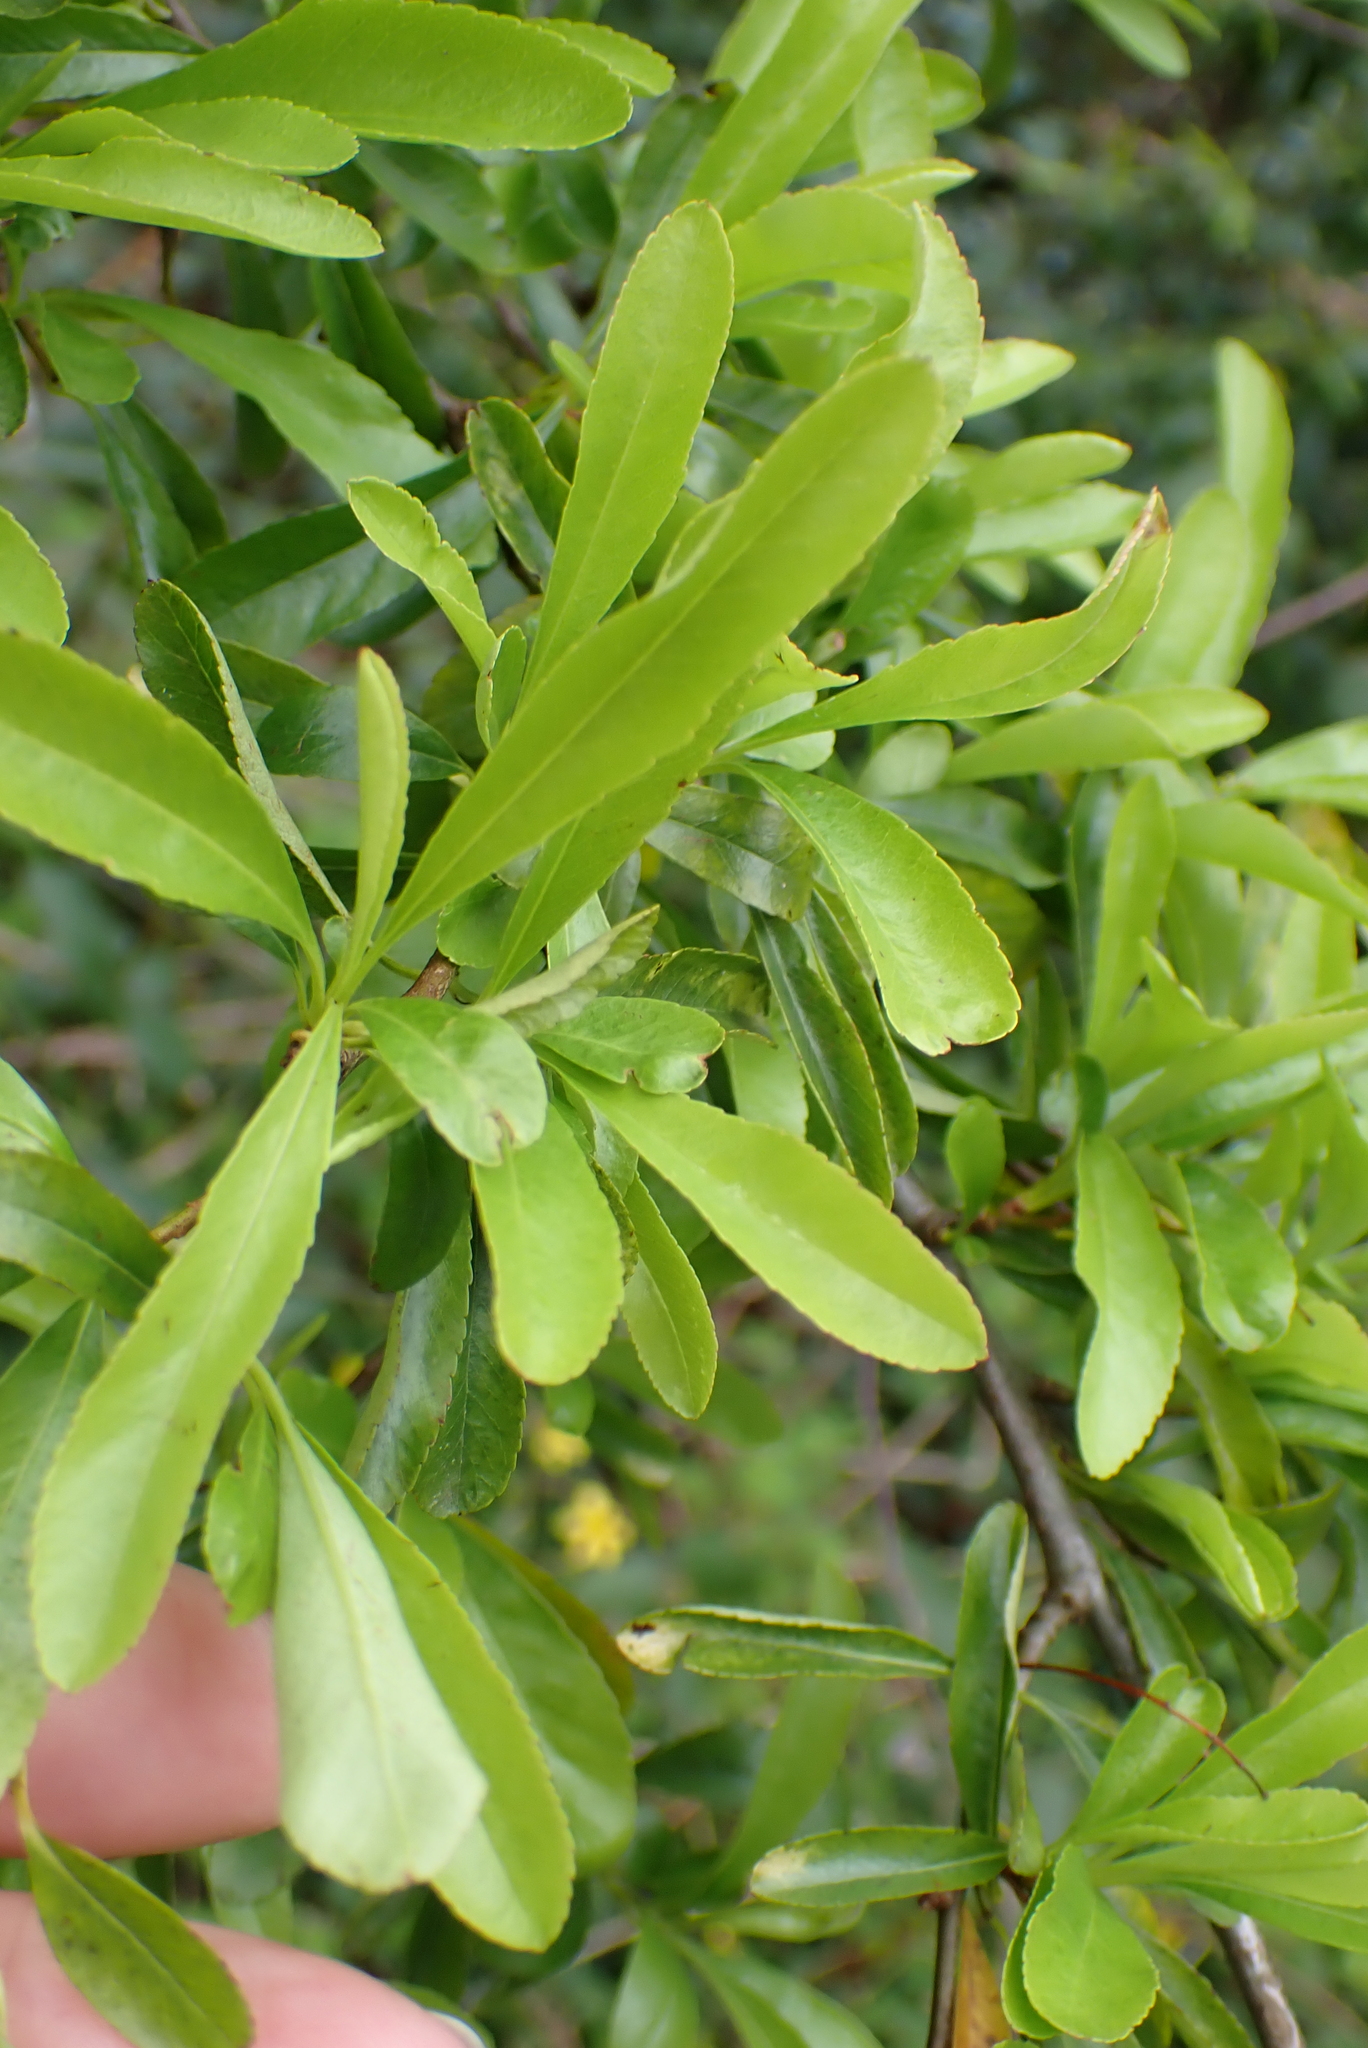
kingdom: Plantae
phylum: Tracheophyta
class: Magnoliopsida
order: Rosales
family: Rosaceae
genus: Pyracantha
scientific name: Pyracantha coccinea
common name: Firethorn
